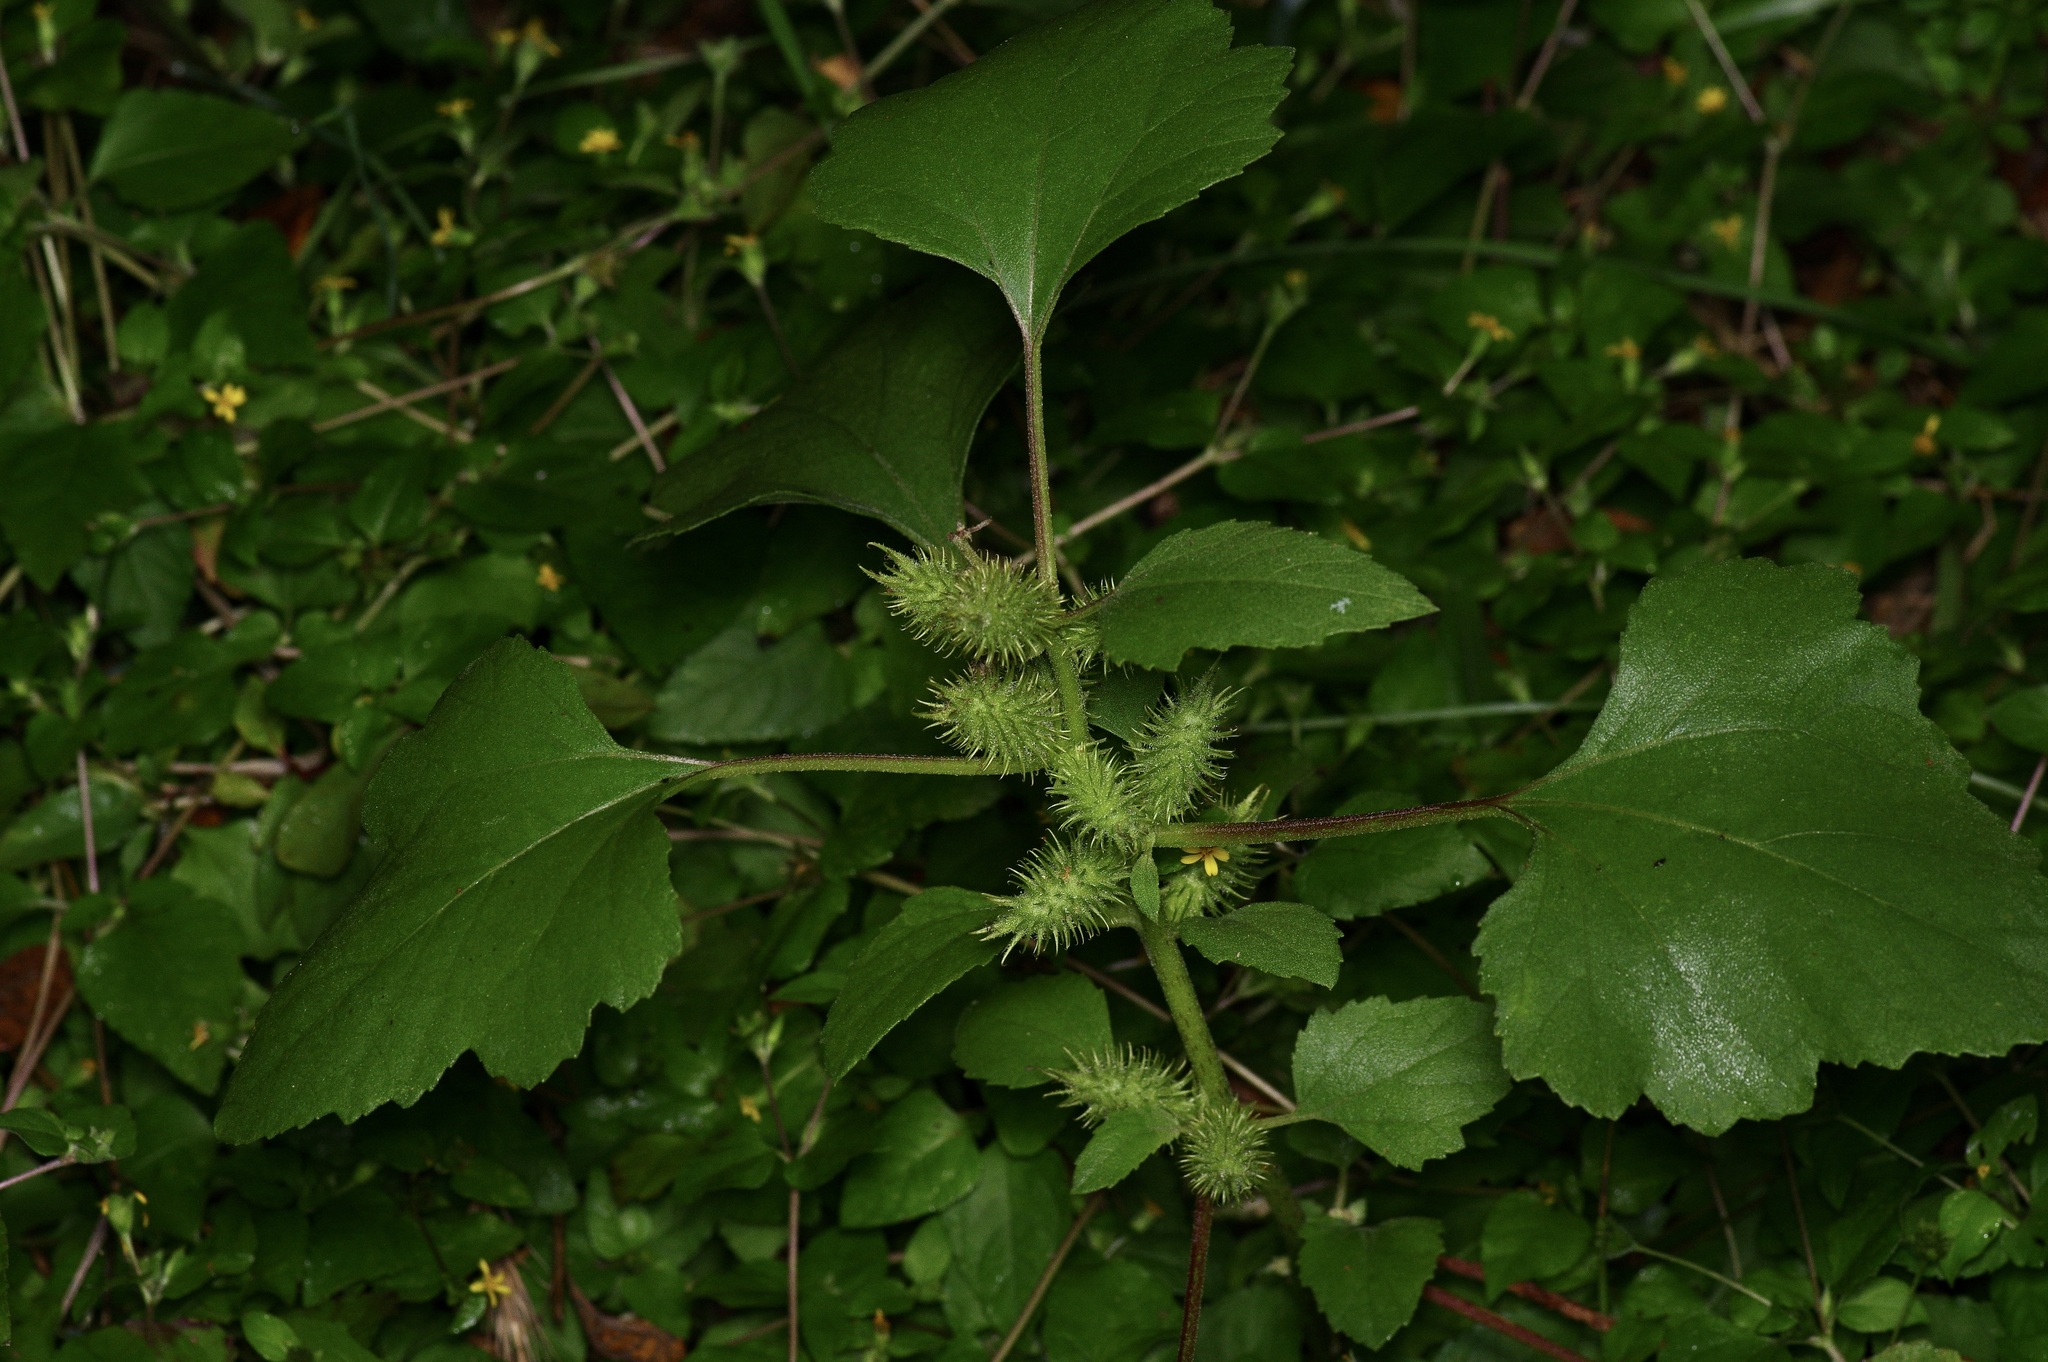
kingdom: Plantae
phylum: Tracheophyta
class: Magnoliopsida
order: Asterales
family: Asteraceae
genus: Xanthium
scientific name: Xanthium strumarium
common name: Rough cocklebur
